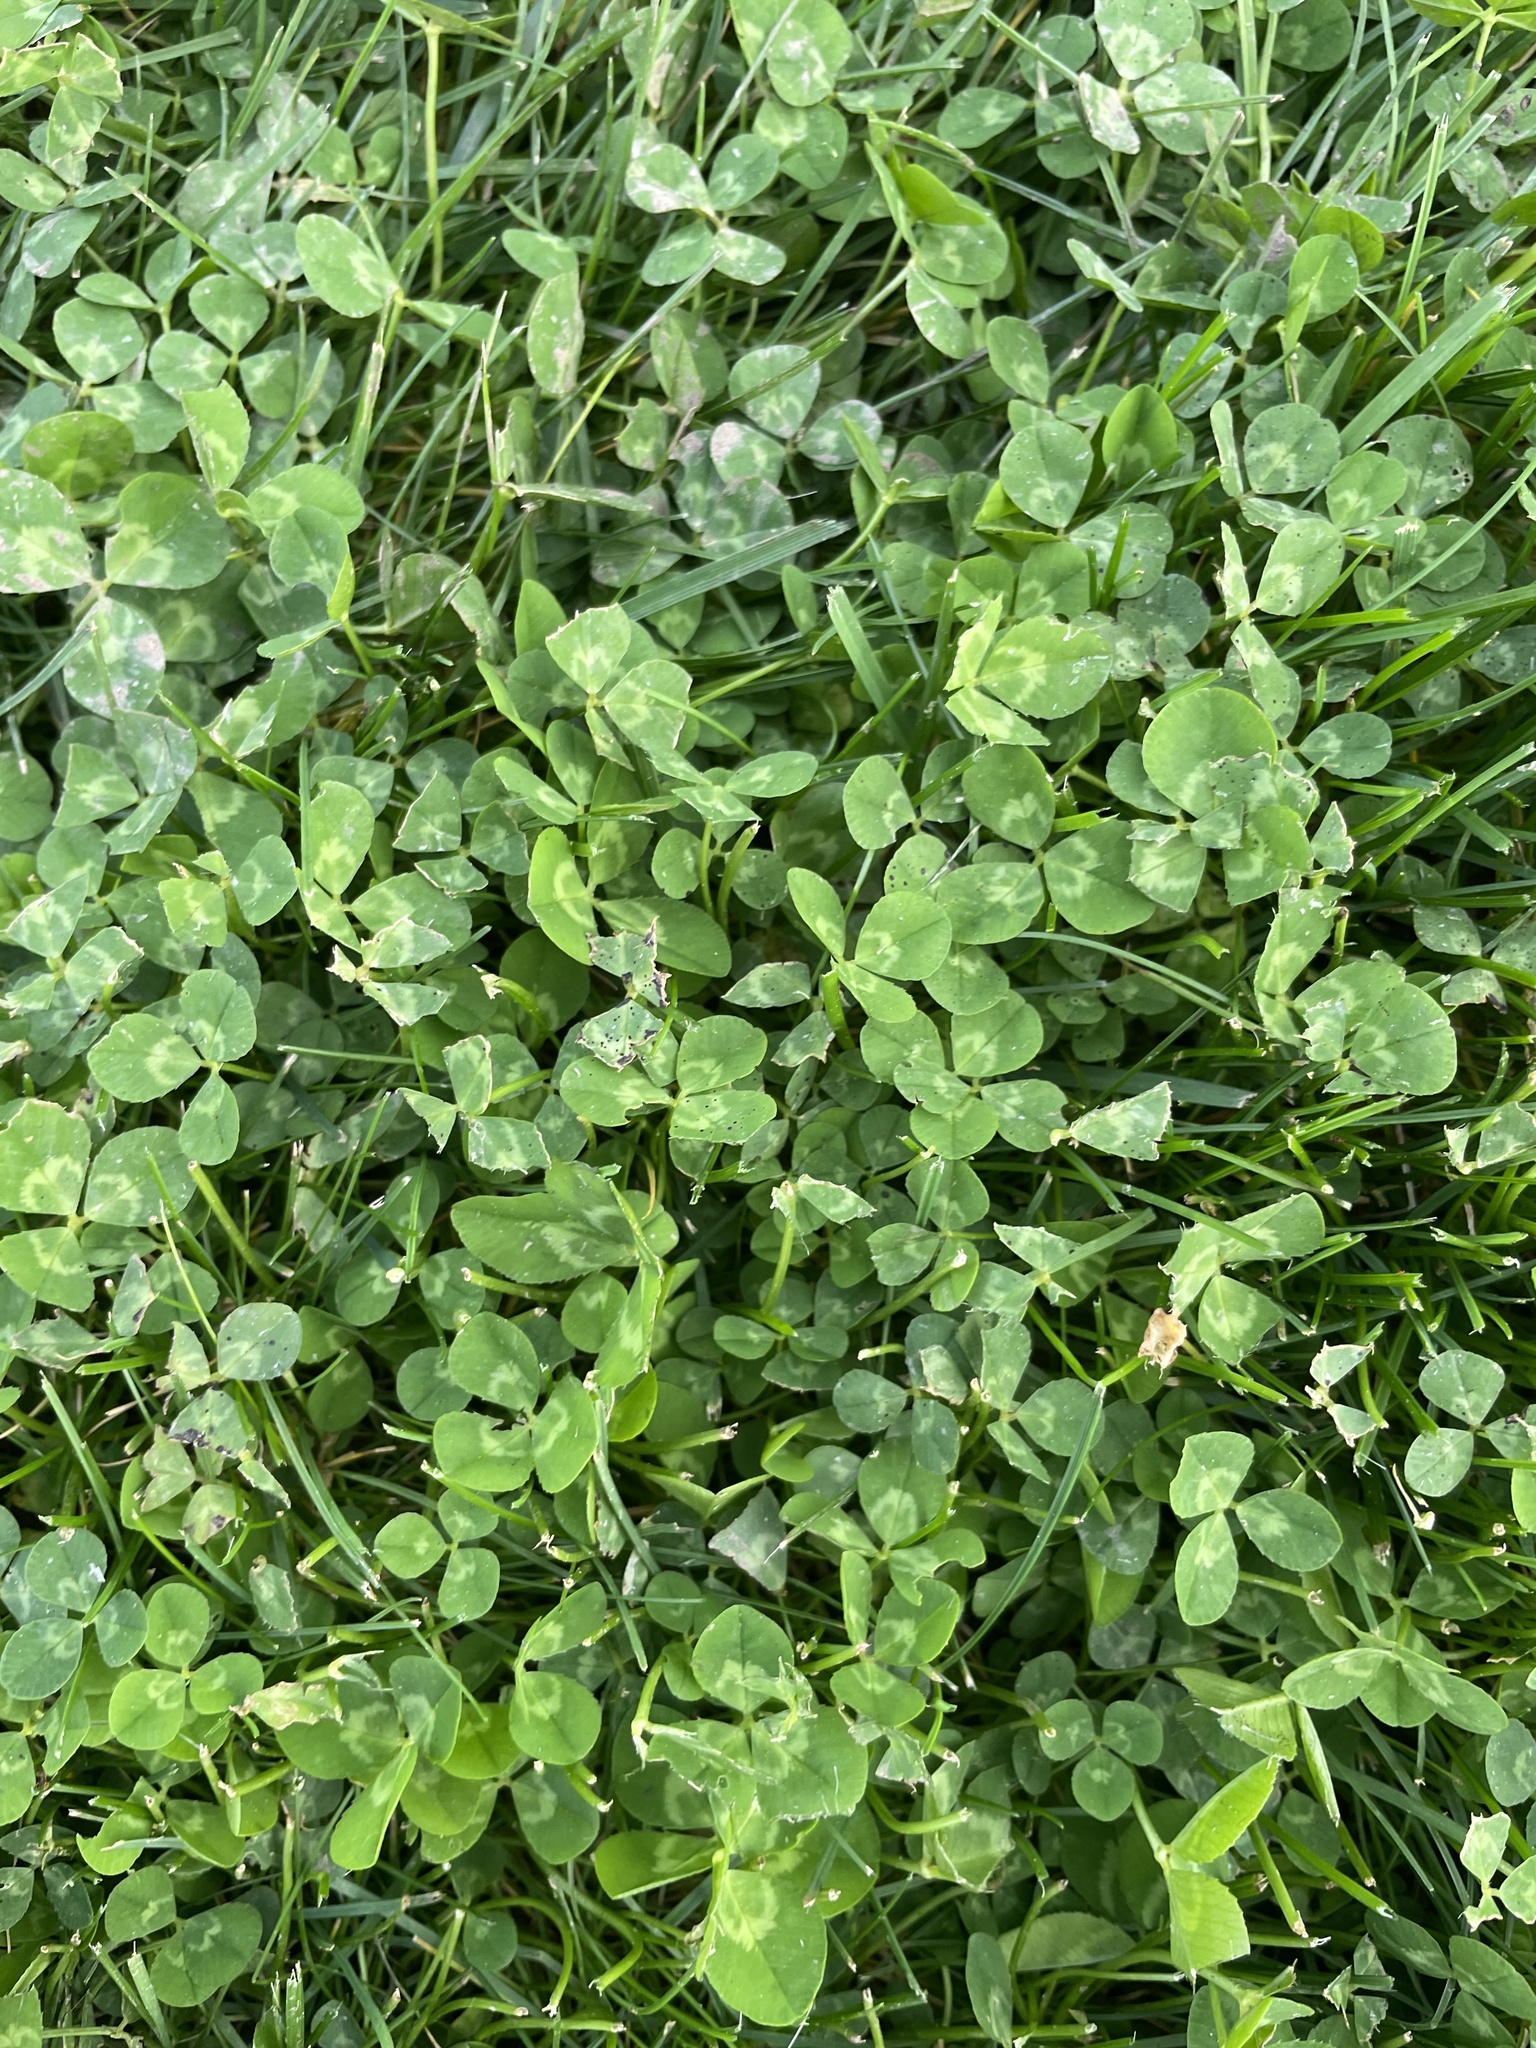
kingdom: Plantae
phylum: Tracheophyta
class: Magnoliopsida
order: Fabales
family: Fabaceae
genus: Trifolium
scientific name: Trifolium repens
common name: White clover
